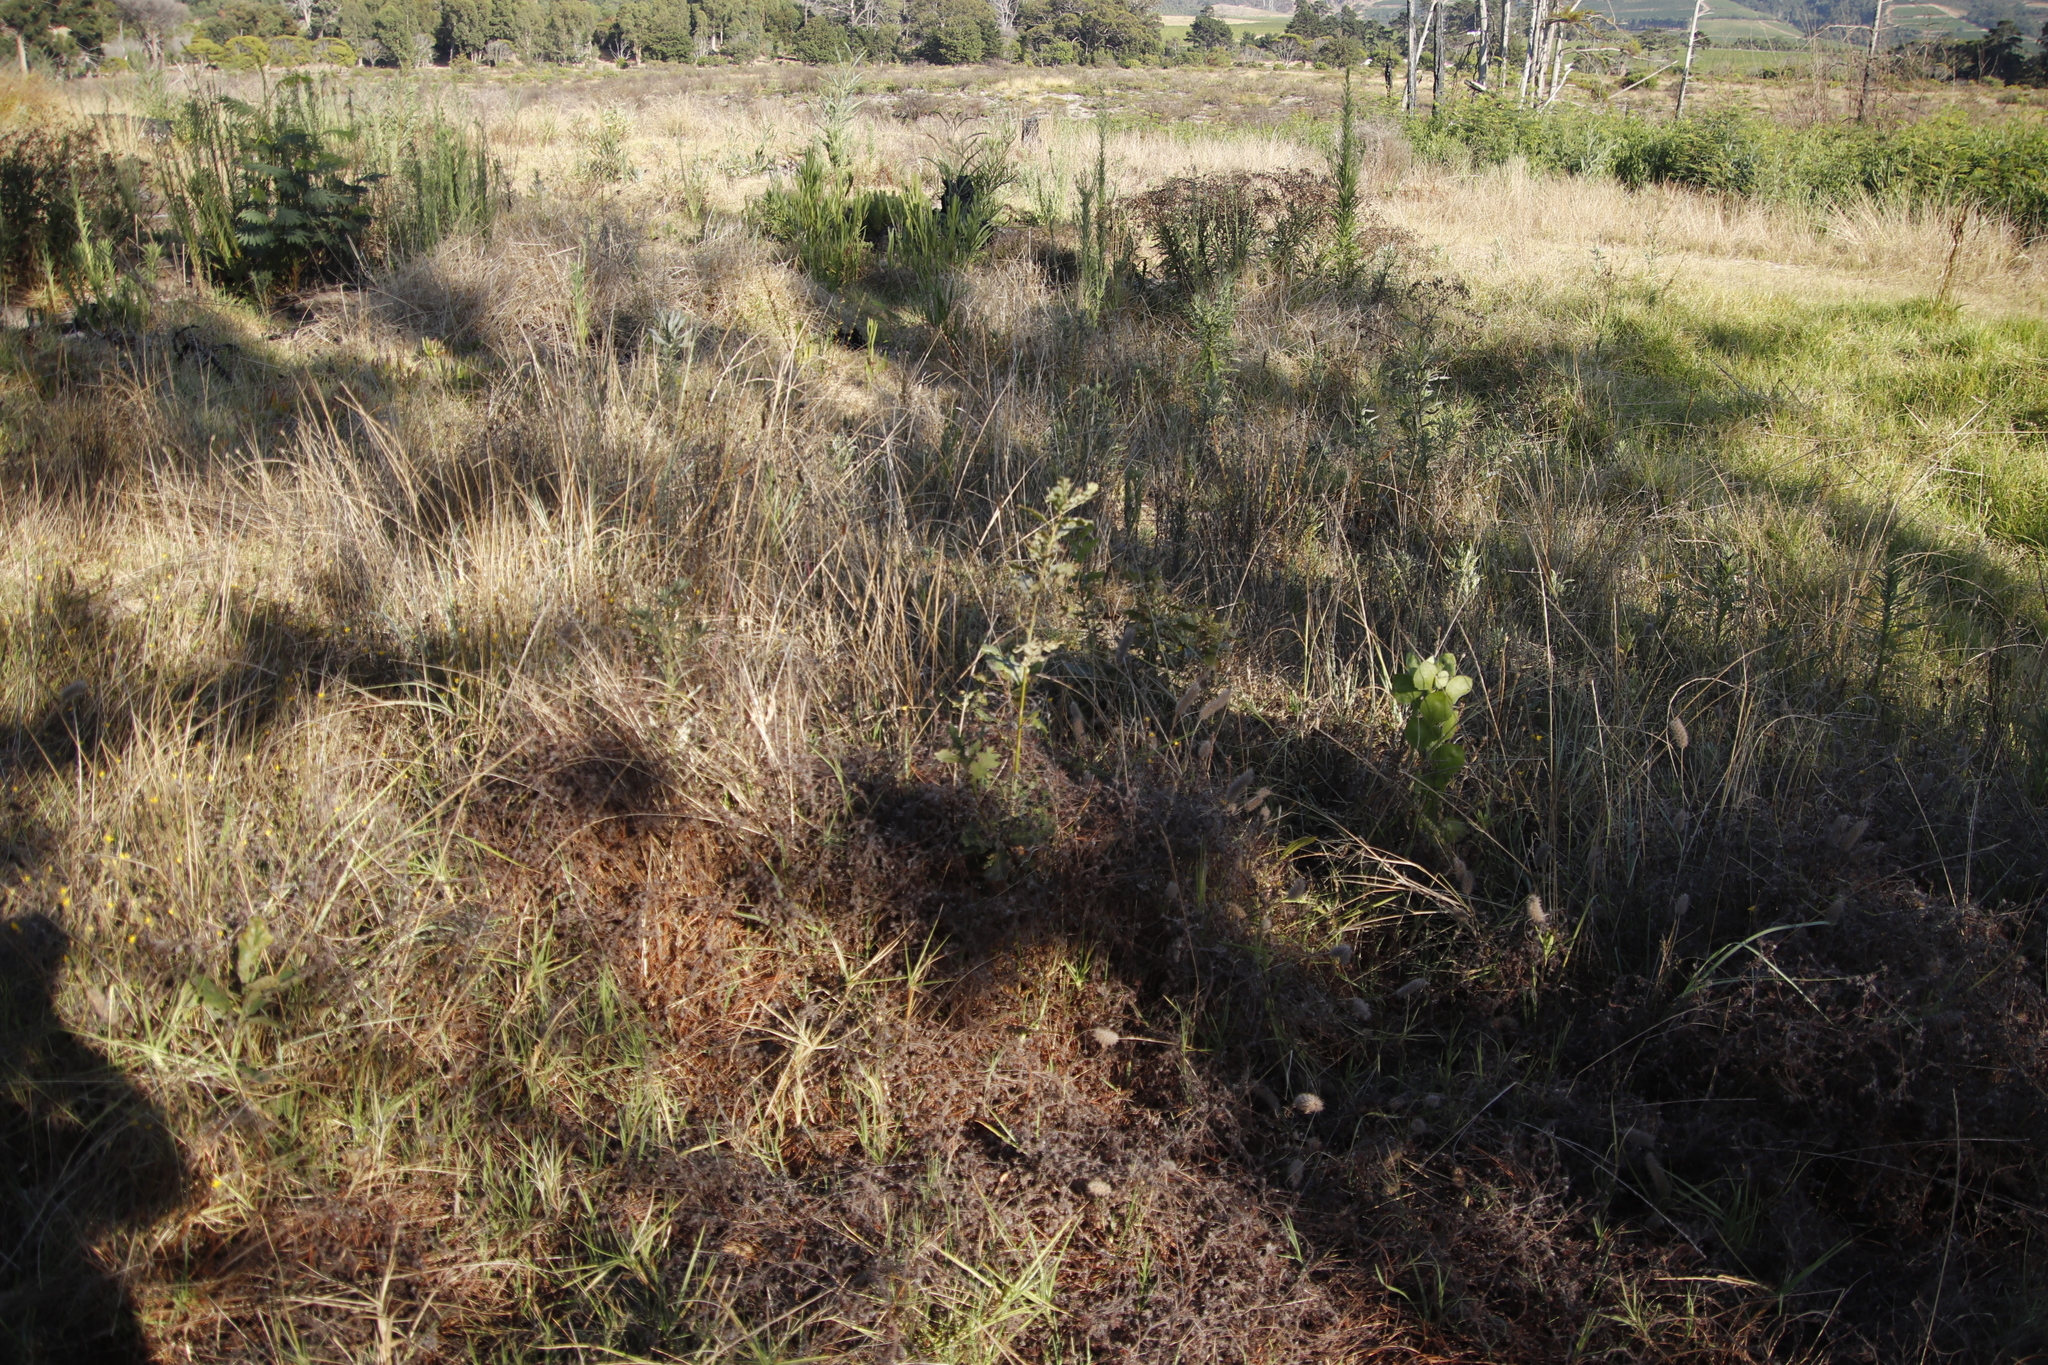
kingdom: Plantae
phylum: Tracheophyta
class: Liliopsida
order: Poales
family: Poaceae
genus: Cenchrus
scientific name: Cenchrus clandestinus
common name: Kikuyugrass
